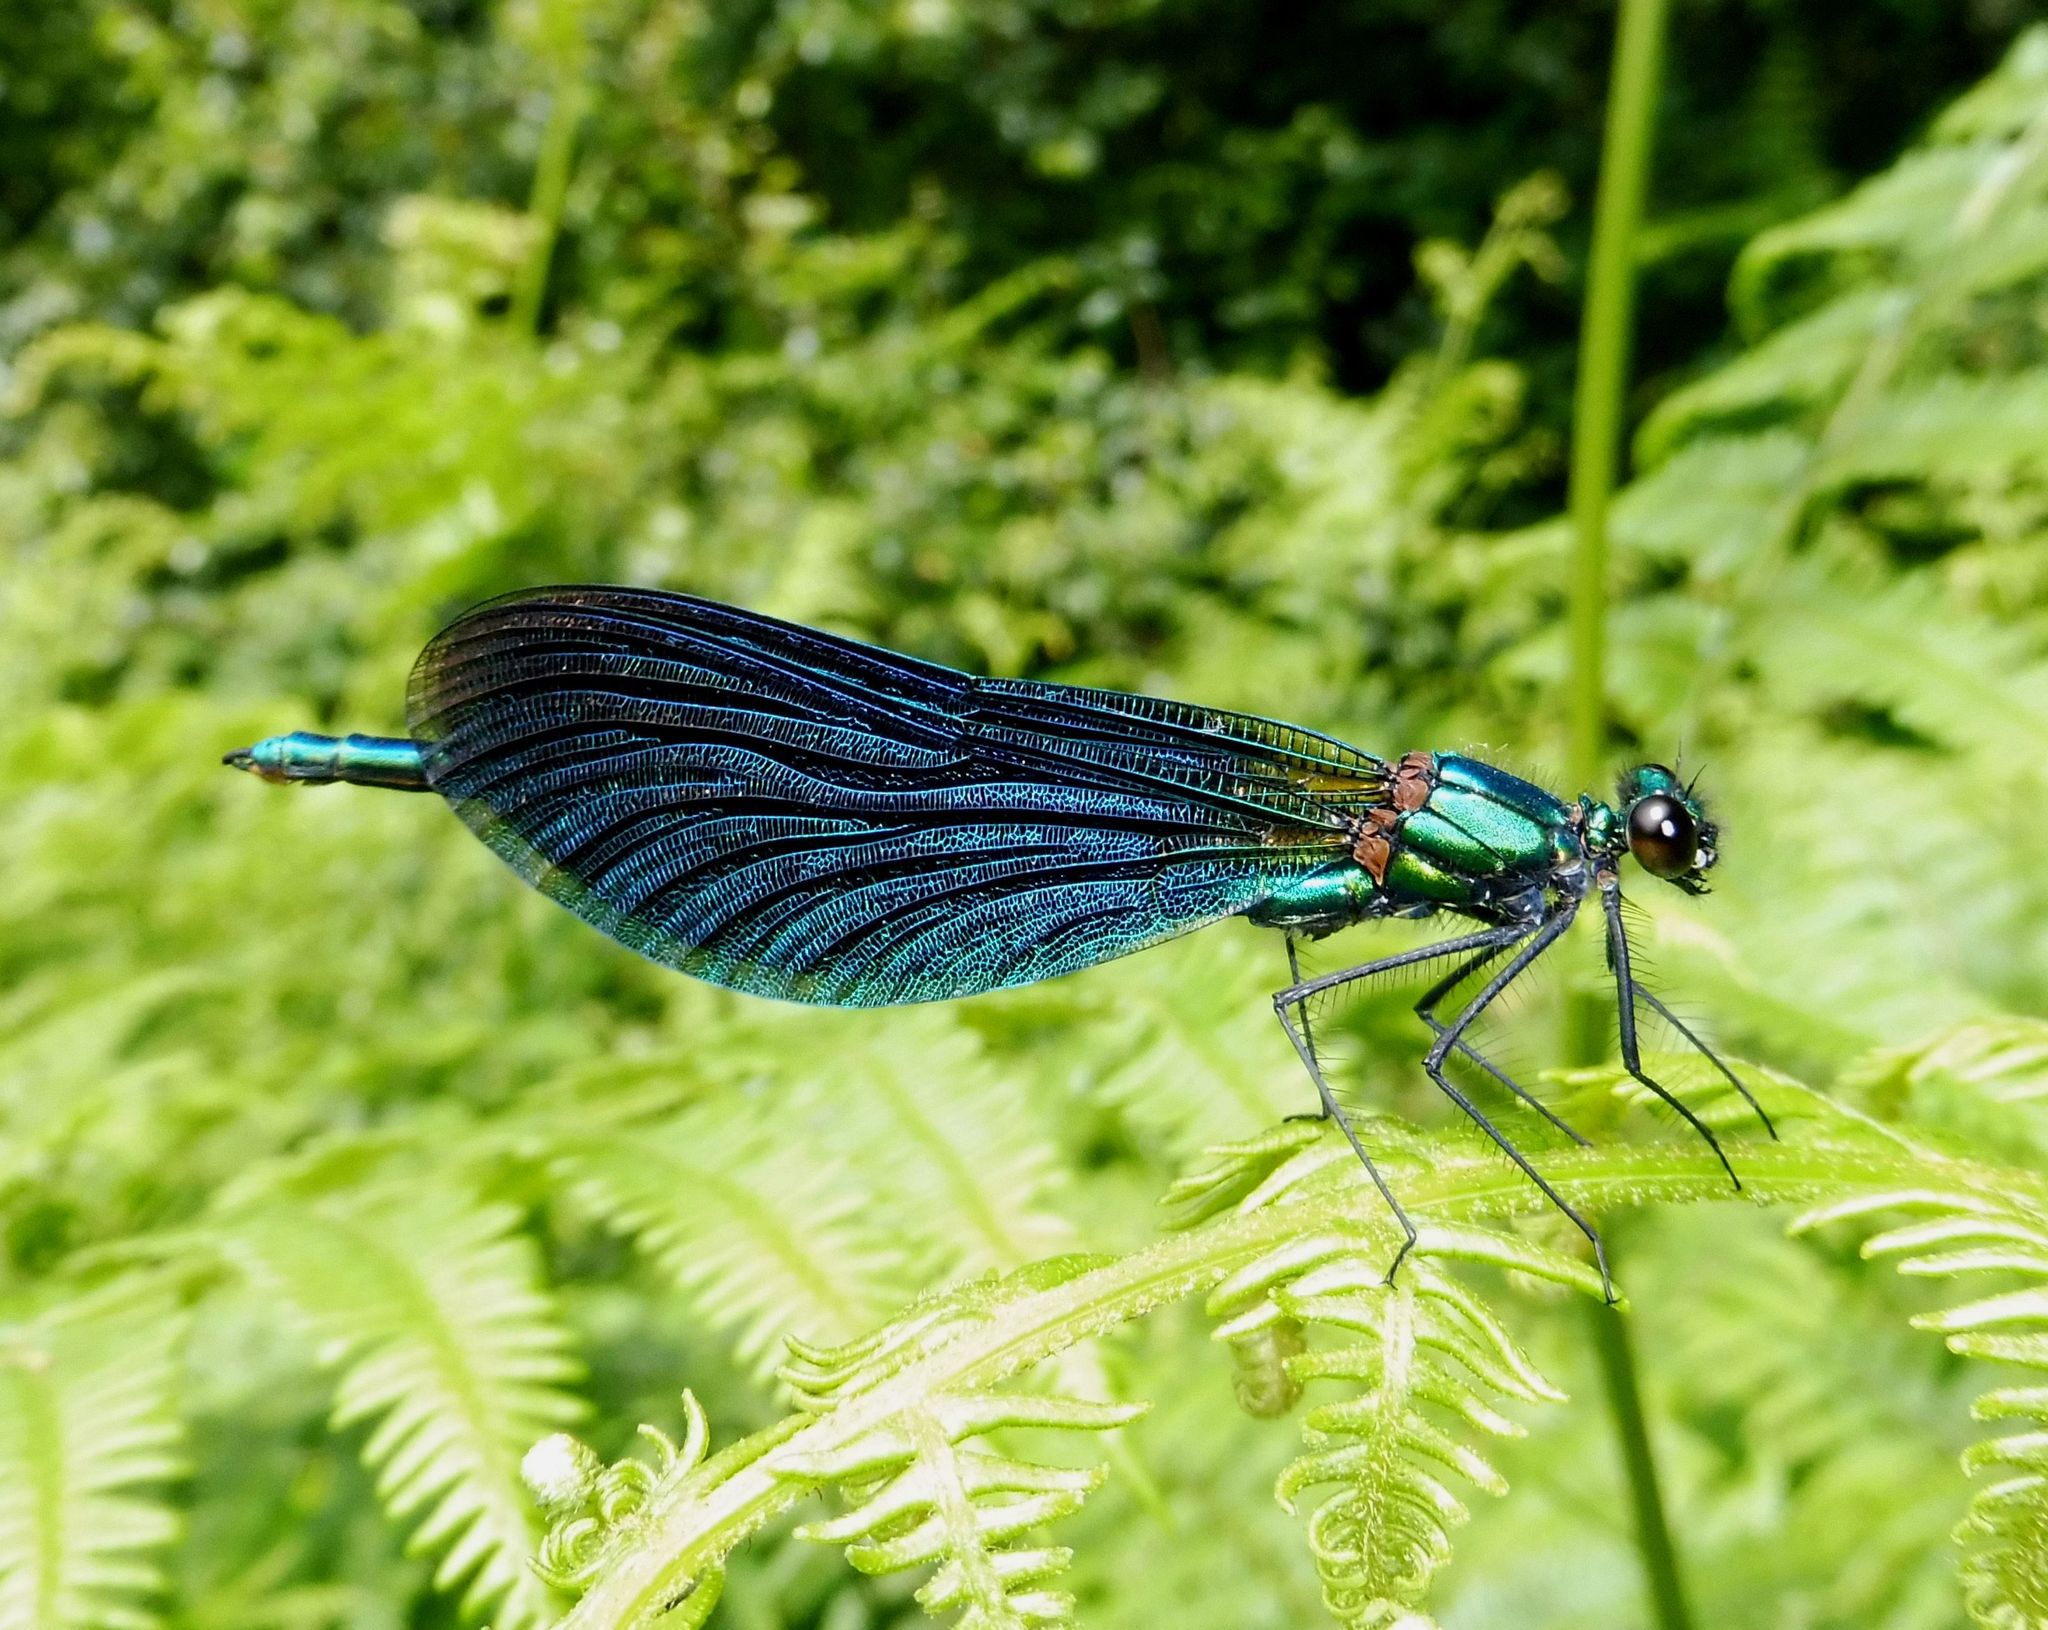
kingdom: Animalia
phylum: Arthropoda
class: Insecta
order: Odonata
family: Calopterygidae
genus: Calopteryx
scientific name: Calopteryx virgo
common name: Beautiful demoiselle
